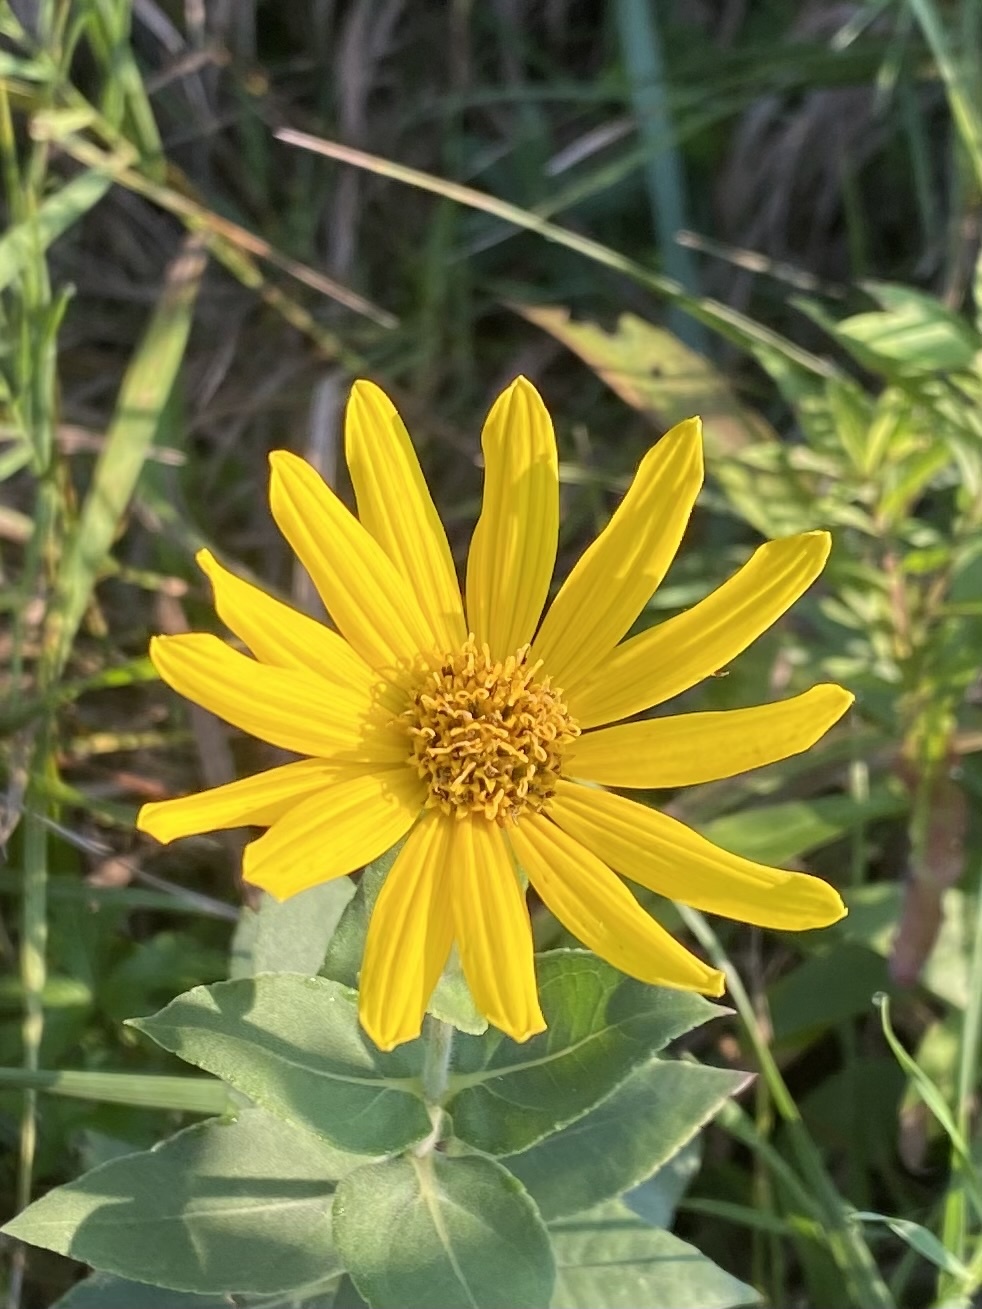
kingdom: Plantae
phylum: Tracheophyta
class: Magnoliopsida
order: Asterales
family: Asteraceae
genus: Silphium
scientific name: Silphium integrifolium
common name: Whole-leaf rosinweed
